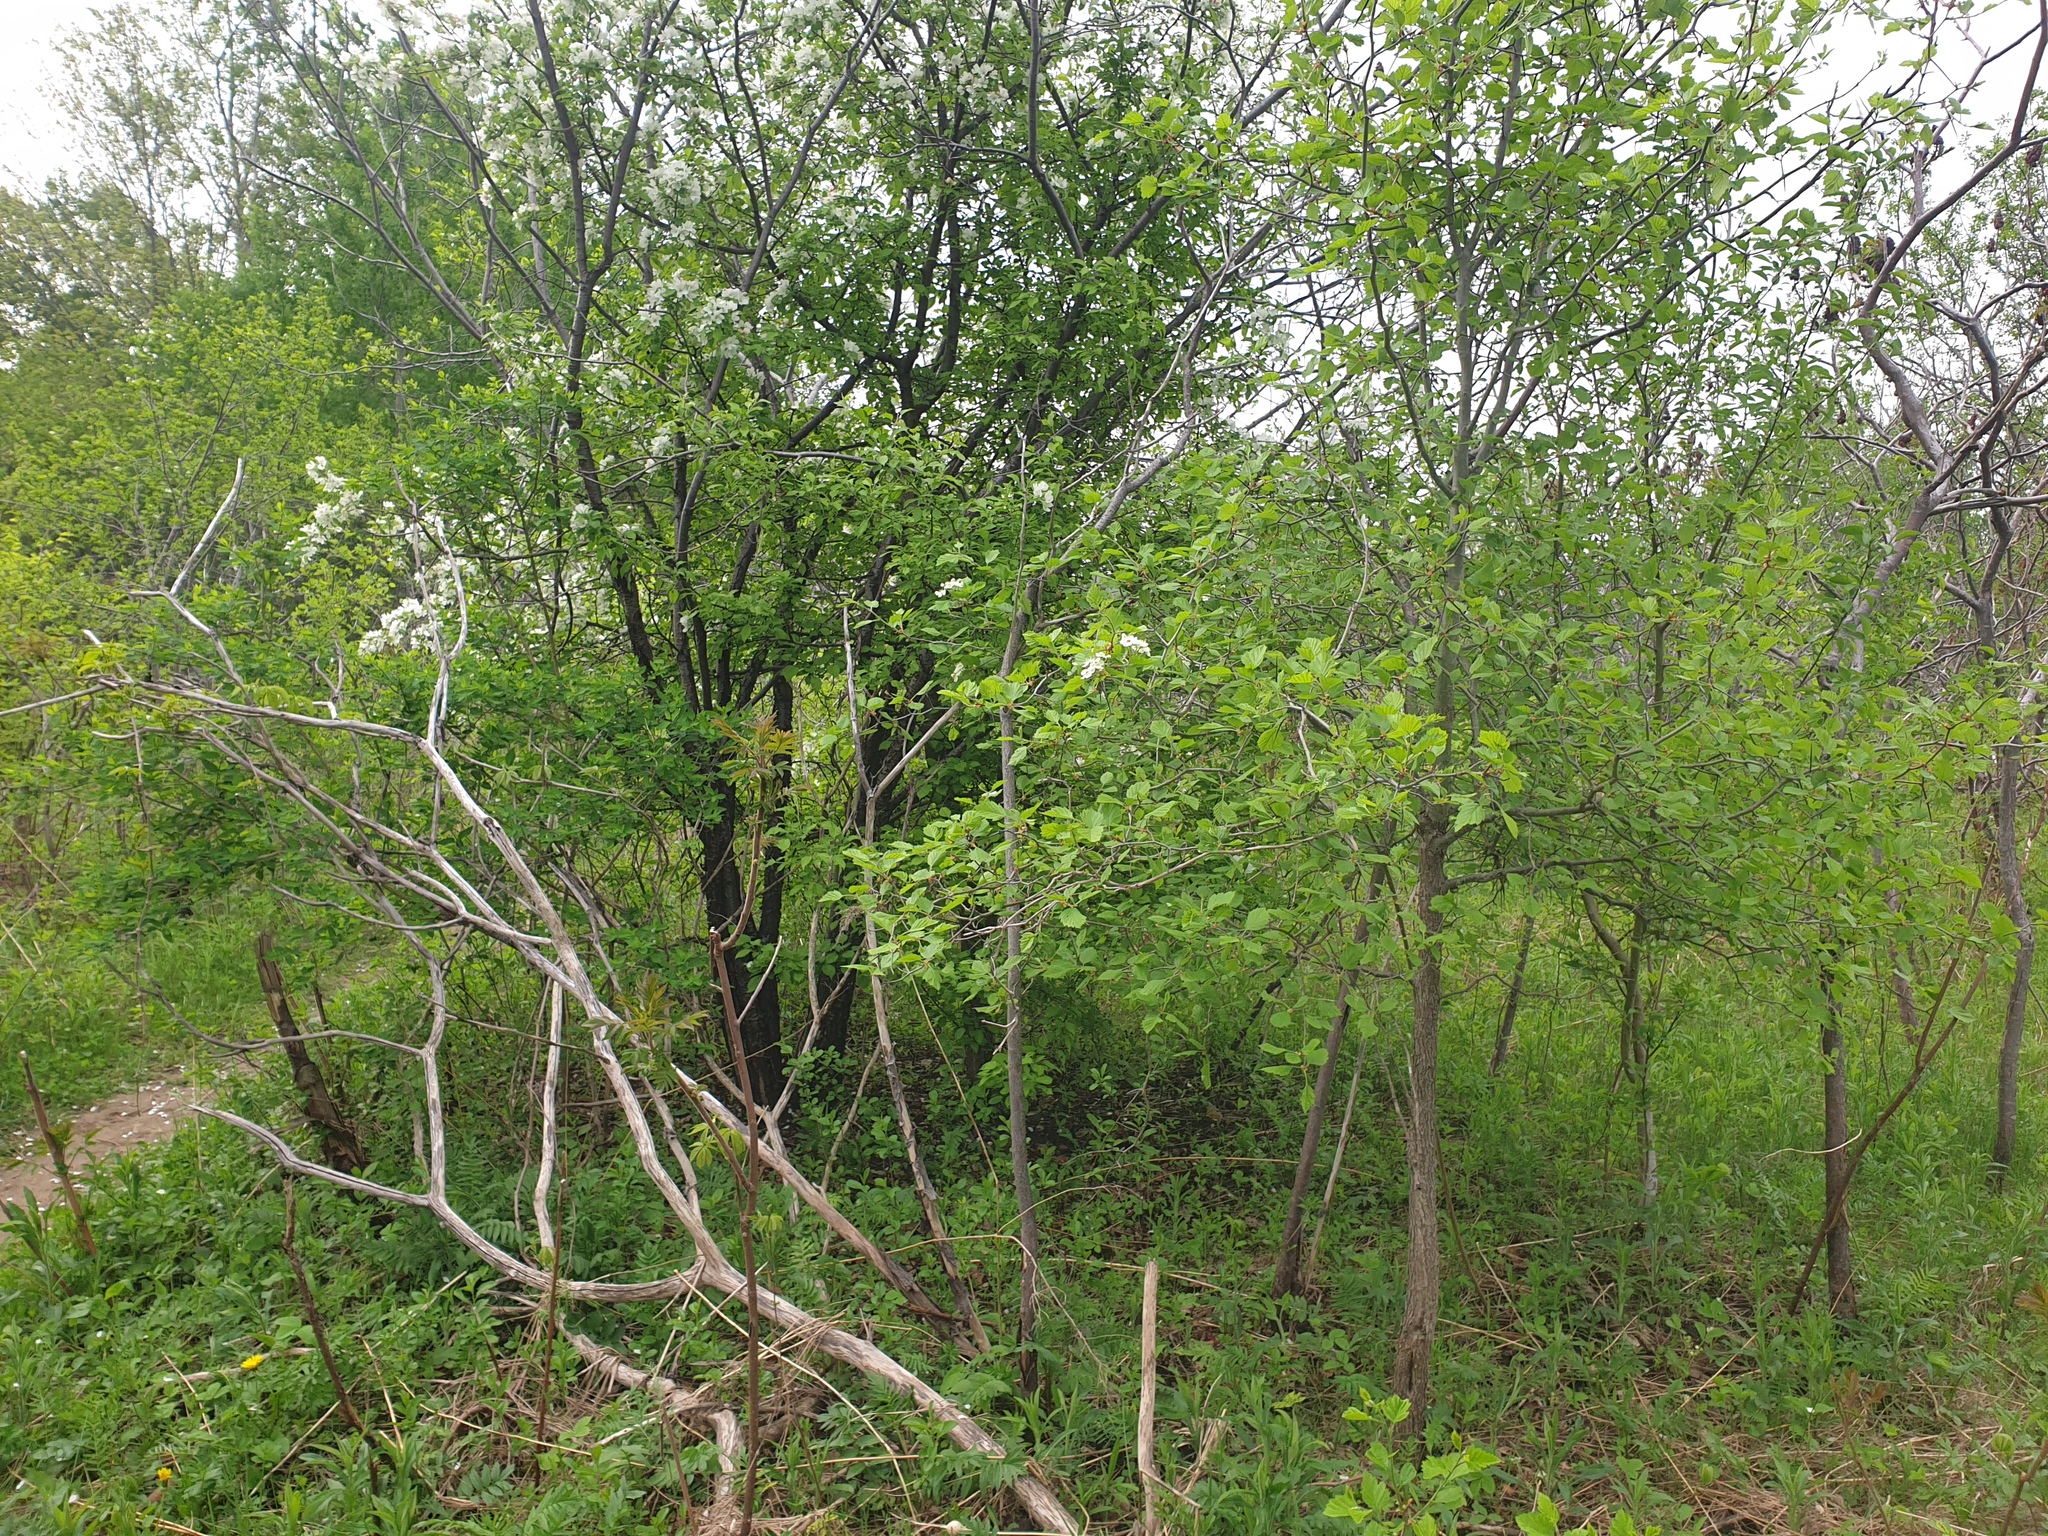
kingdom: Plantae
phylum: Tracheophyta
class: Magnoliopsida
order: Rosales
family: Rosaceae
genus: Crataegus
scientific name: Crataegus submollis
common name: Hairy cockspurthorn
